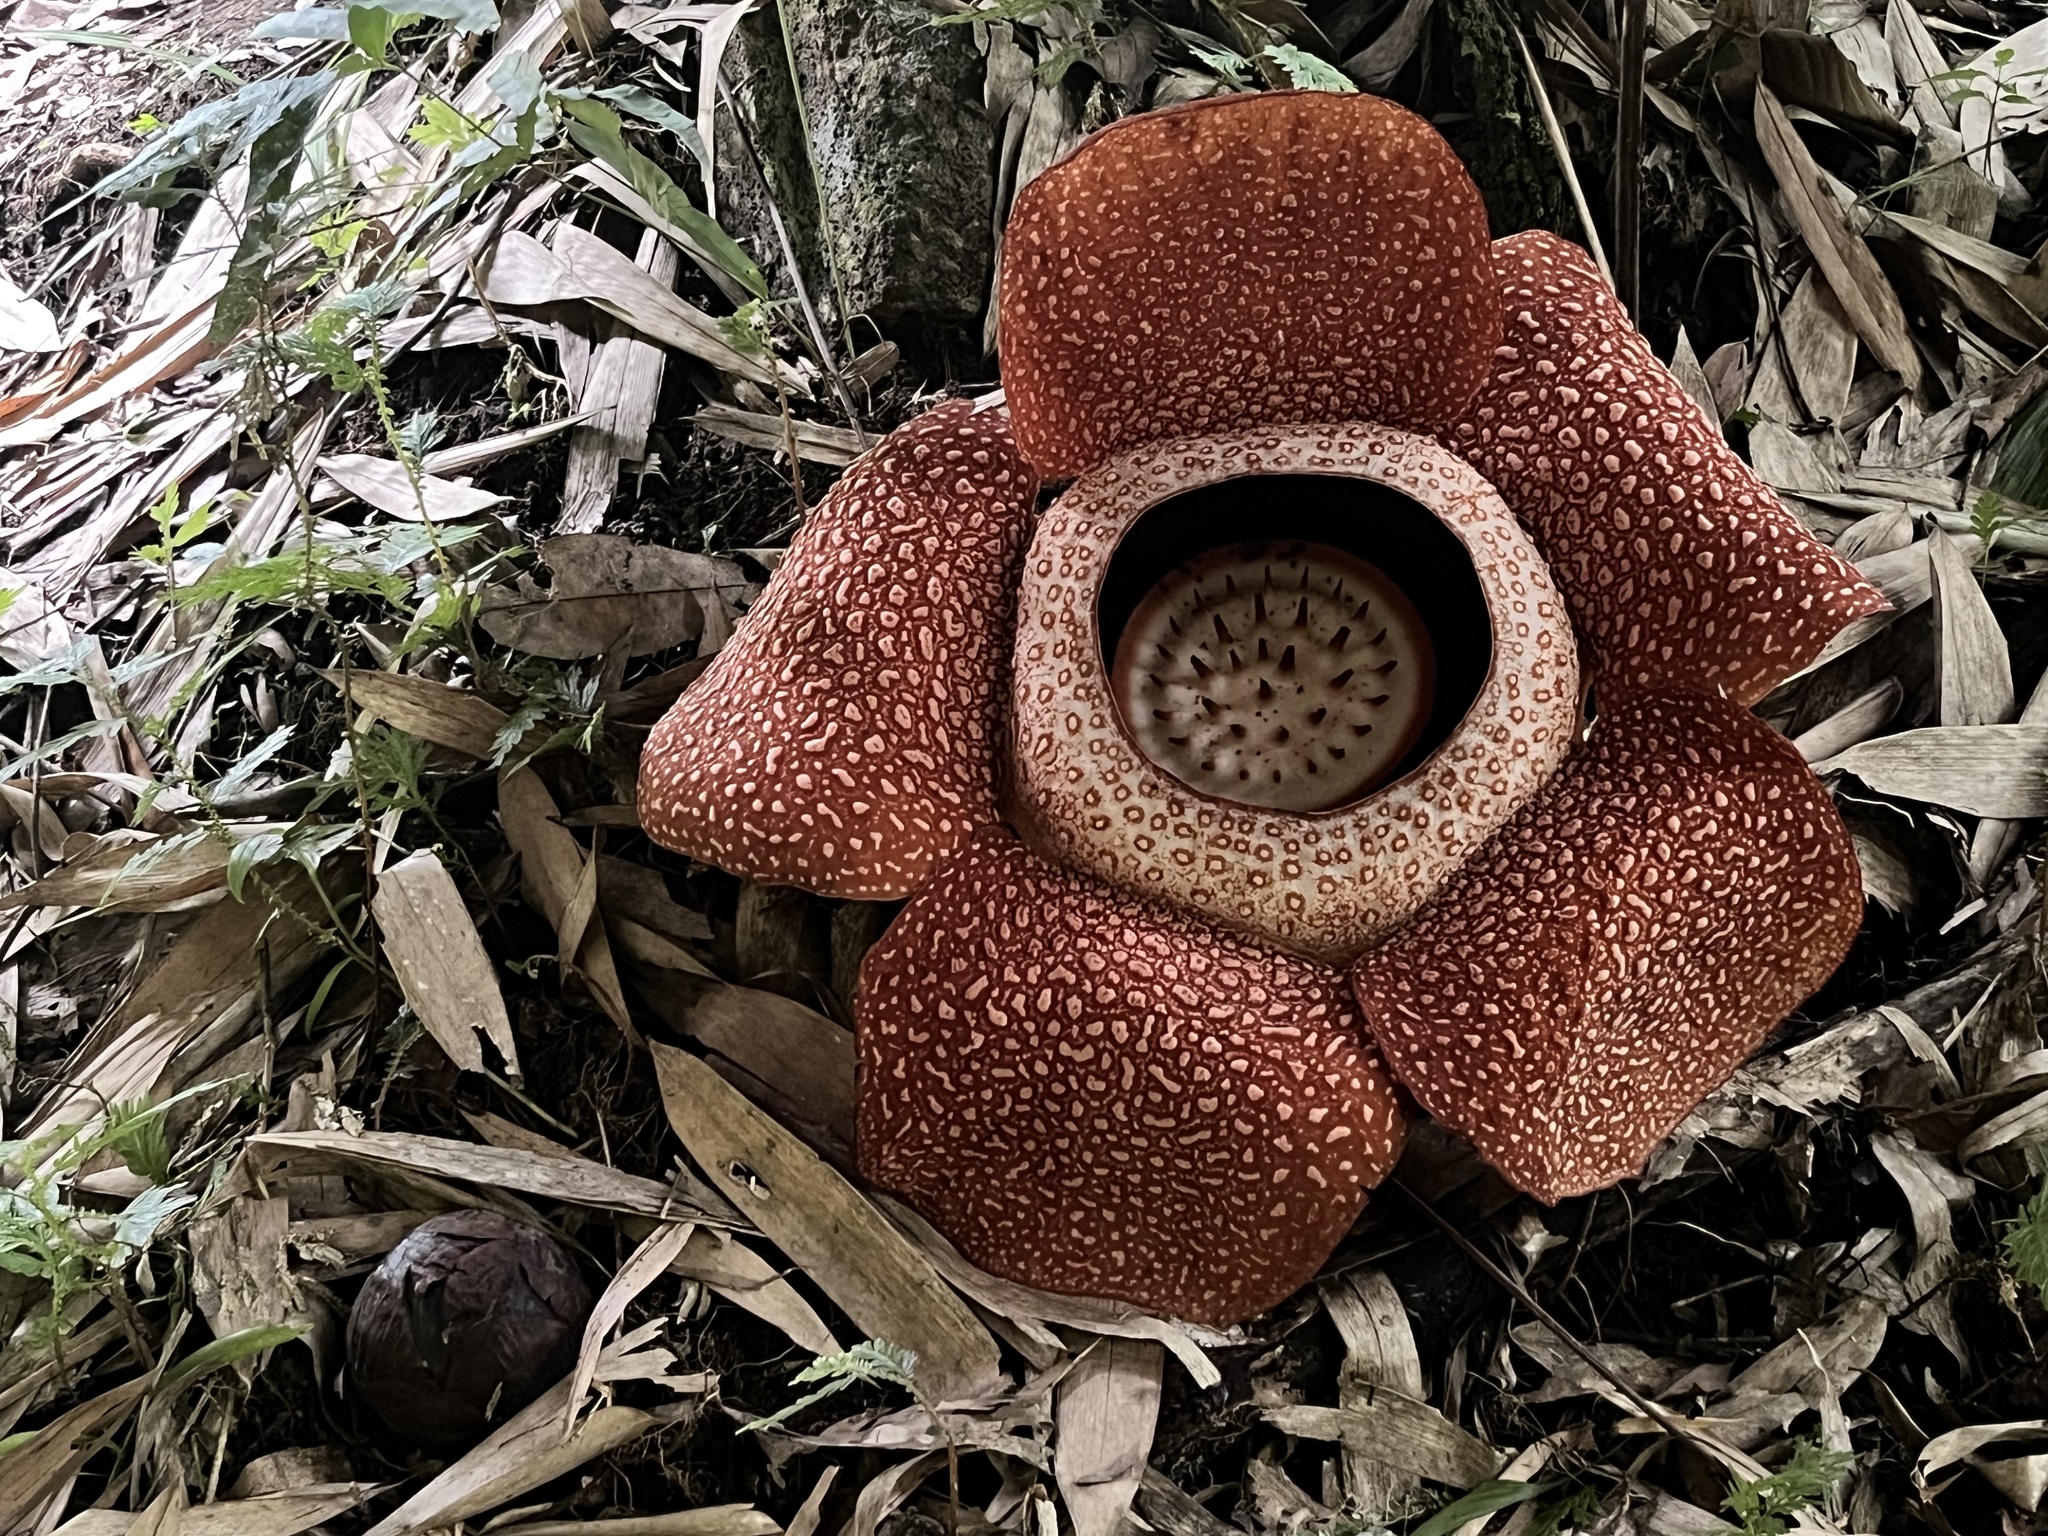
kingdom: Plantae
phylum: Tracheophyta
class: Magnoliopsida
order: Malpighiales
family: Rafflesiaceae
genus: Rafflesia
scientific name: Rafflesia keithii
